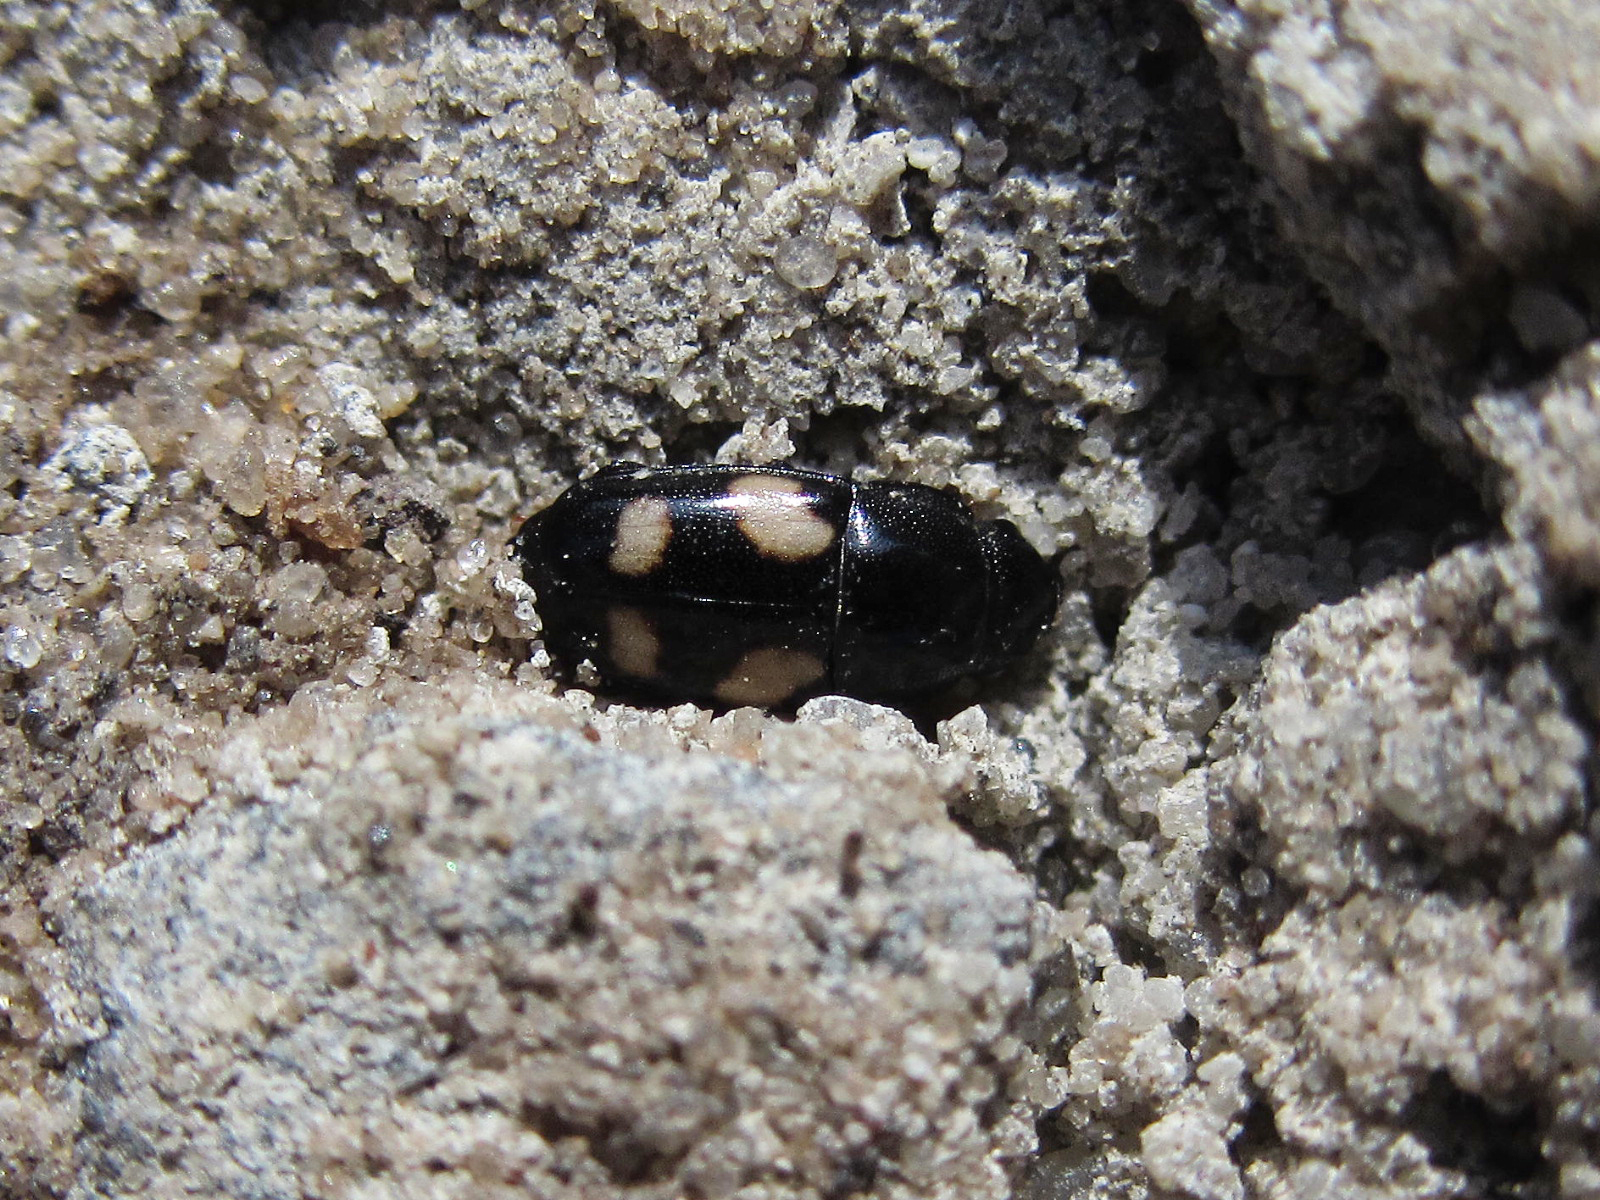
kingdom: Animalia
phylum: Arthropoda
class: Insecta
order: Coleoptera
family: Nitidulidae
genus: Glischrochilus
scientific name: Glischrochilus quadrisignatus
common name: Picnic beetle
